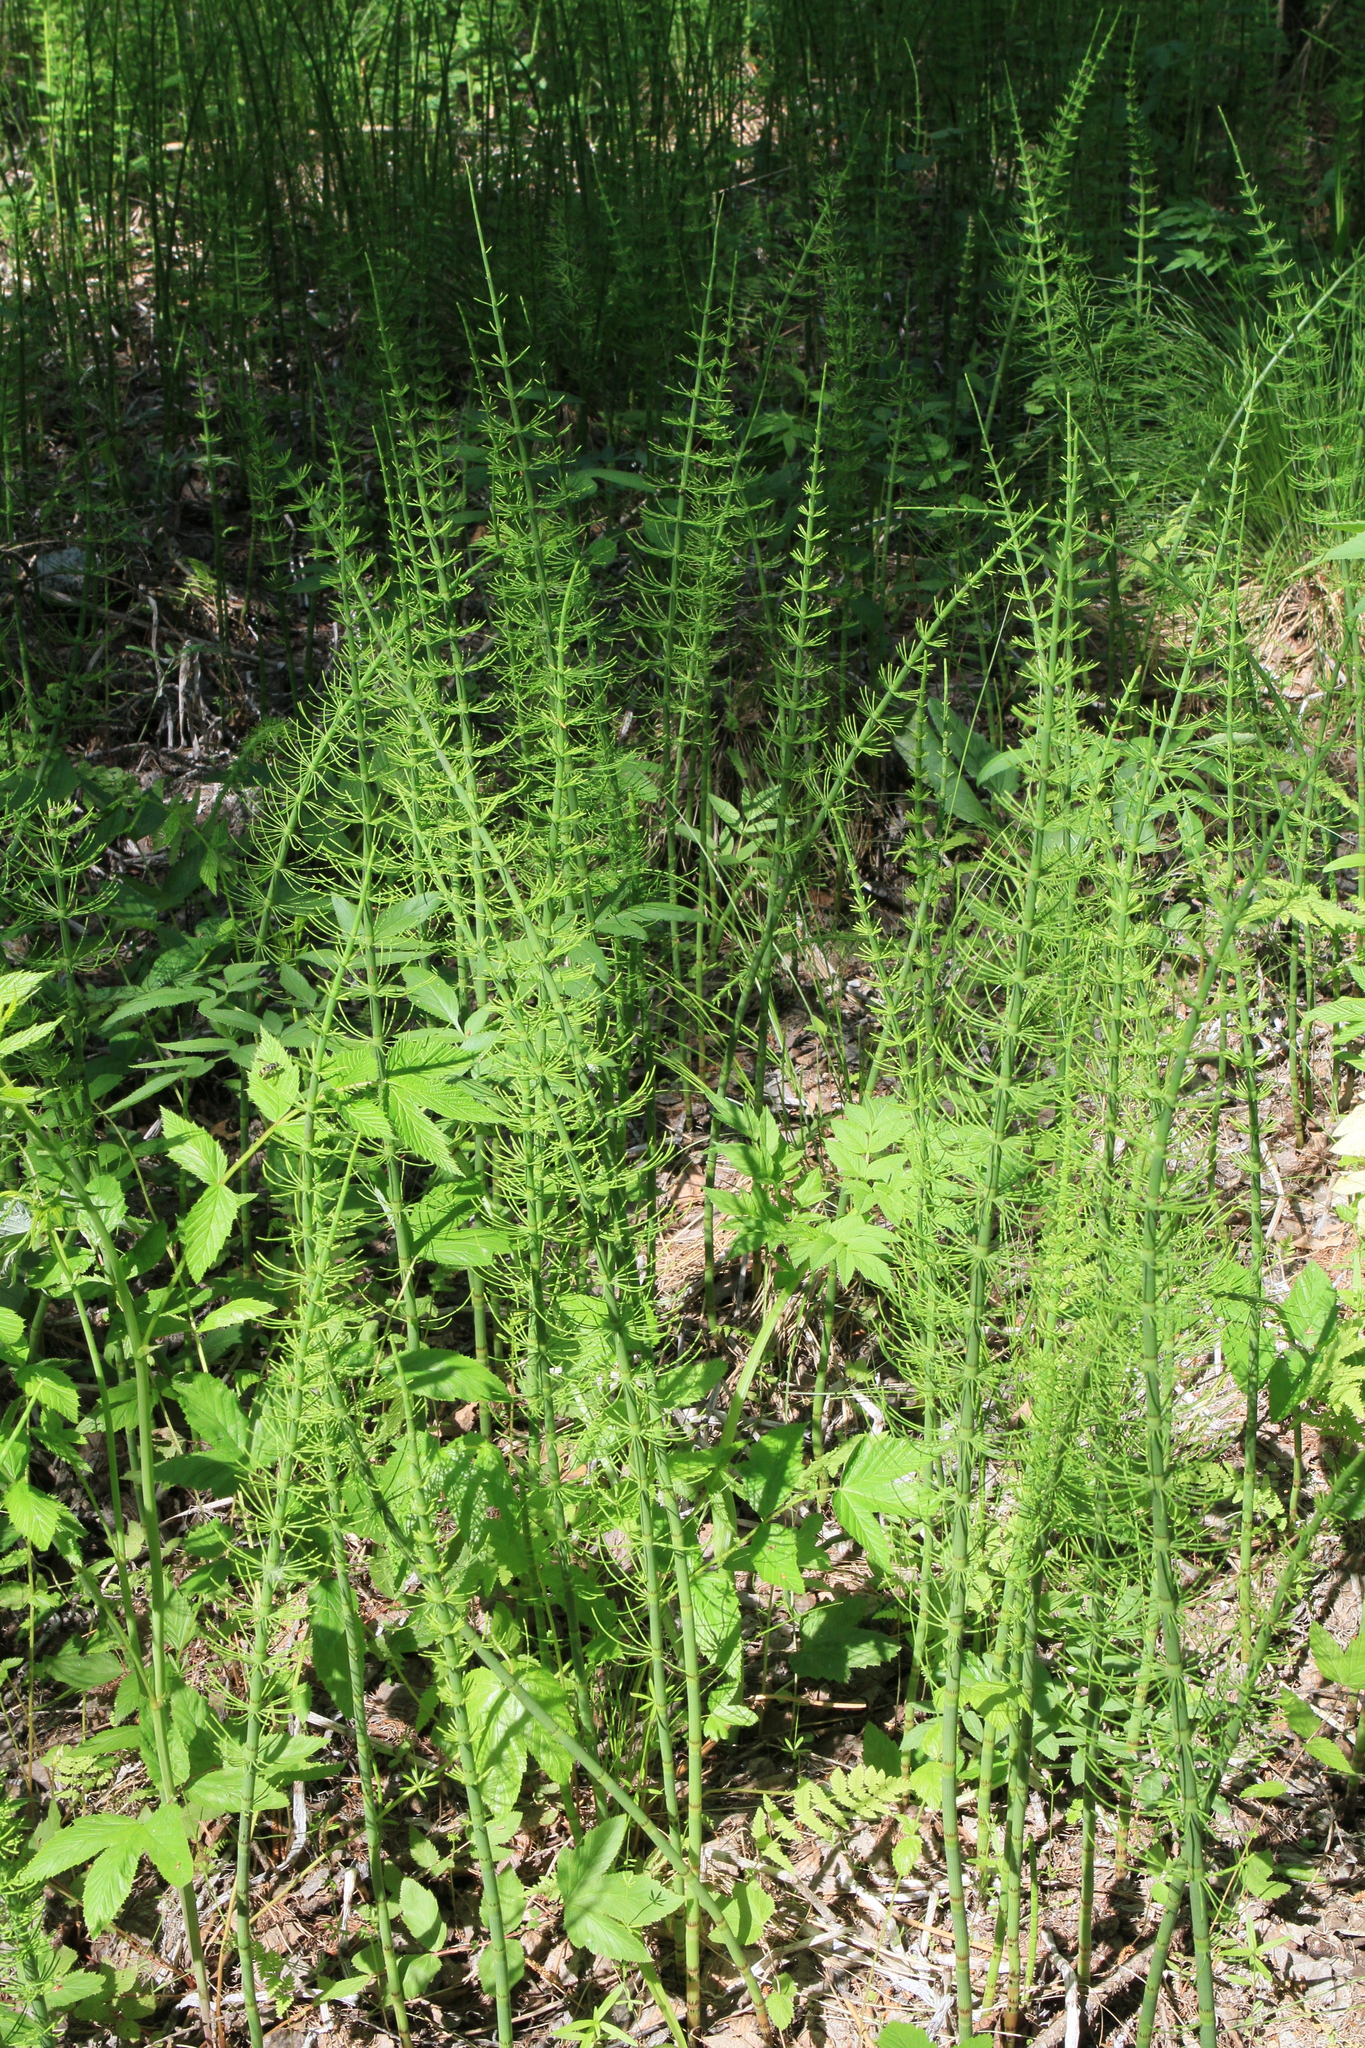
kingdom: Plantae
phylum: Tracheophyta
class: Polypodiopsida
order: Equisetales
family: Equisetaceae
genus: Equisetum
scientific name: Equisetum fluviatile
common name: Water horsetail
